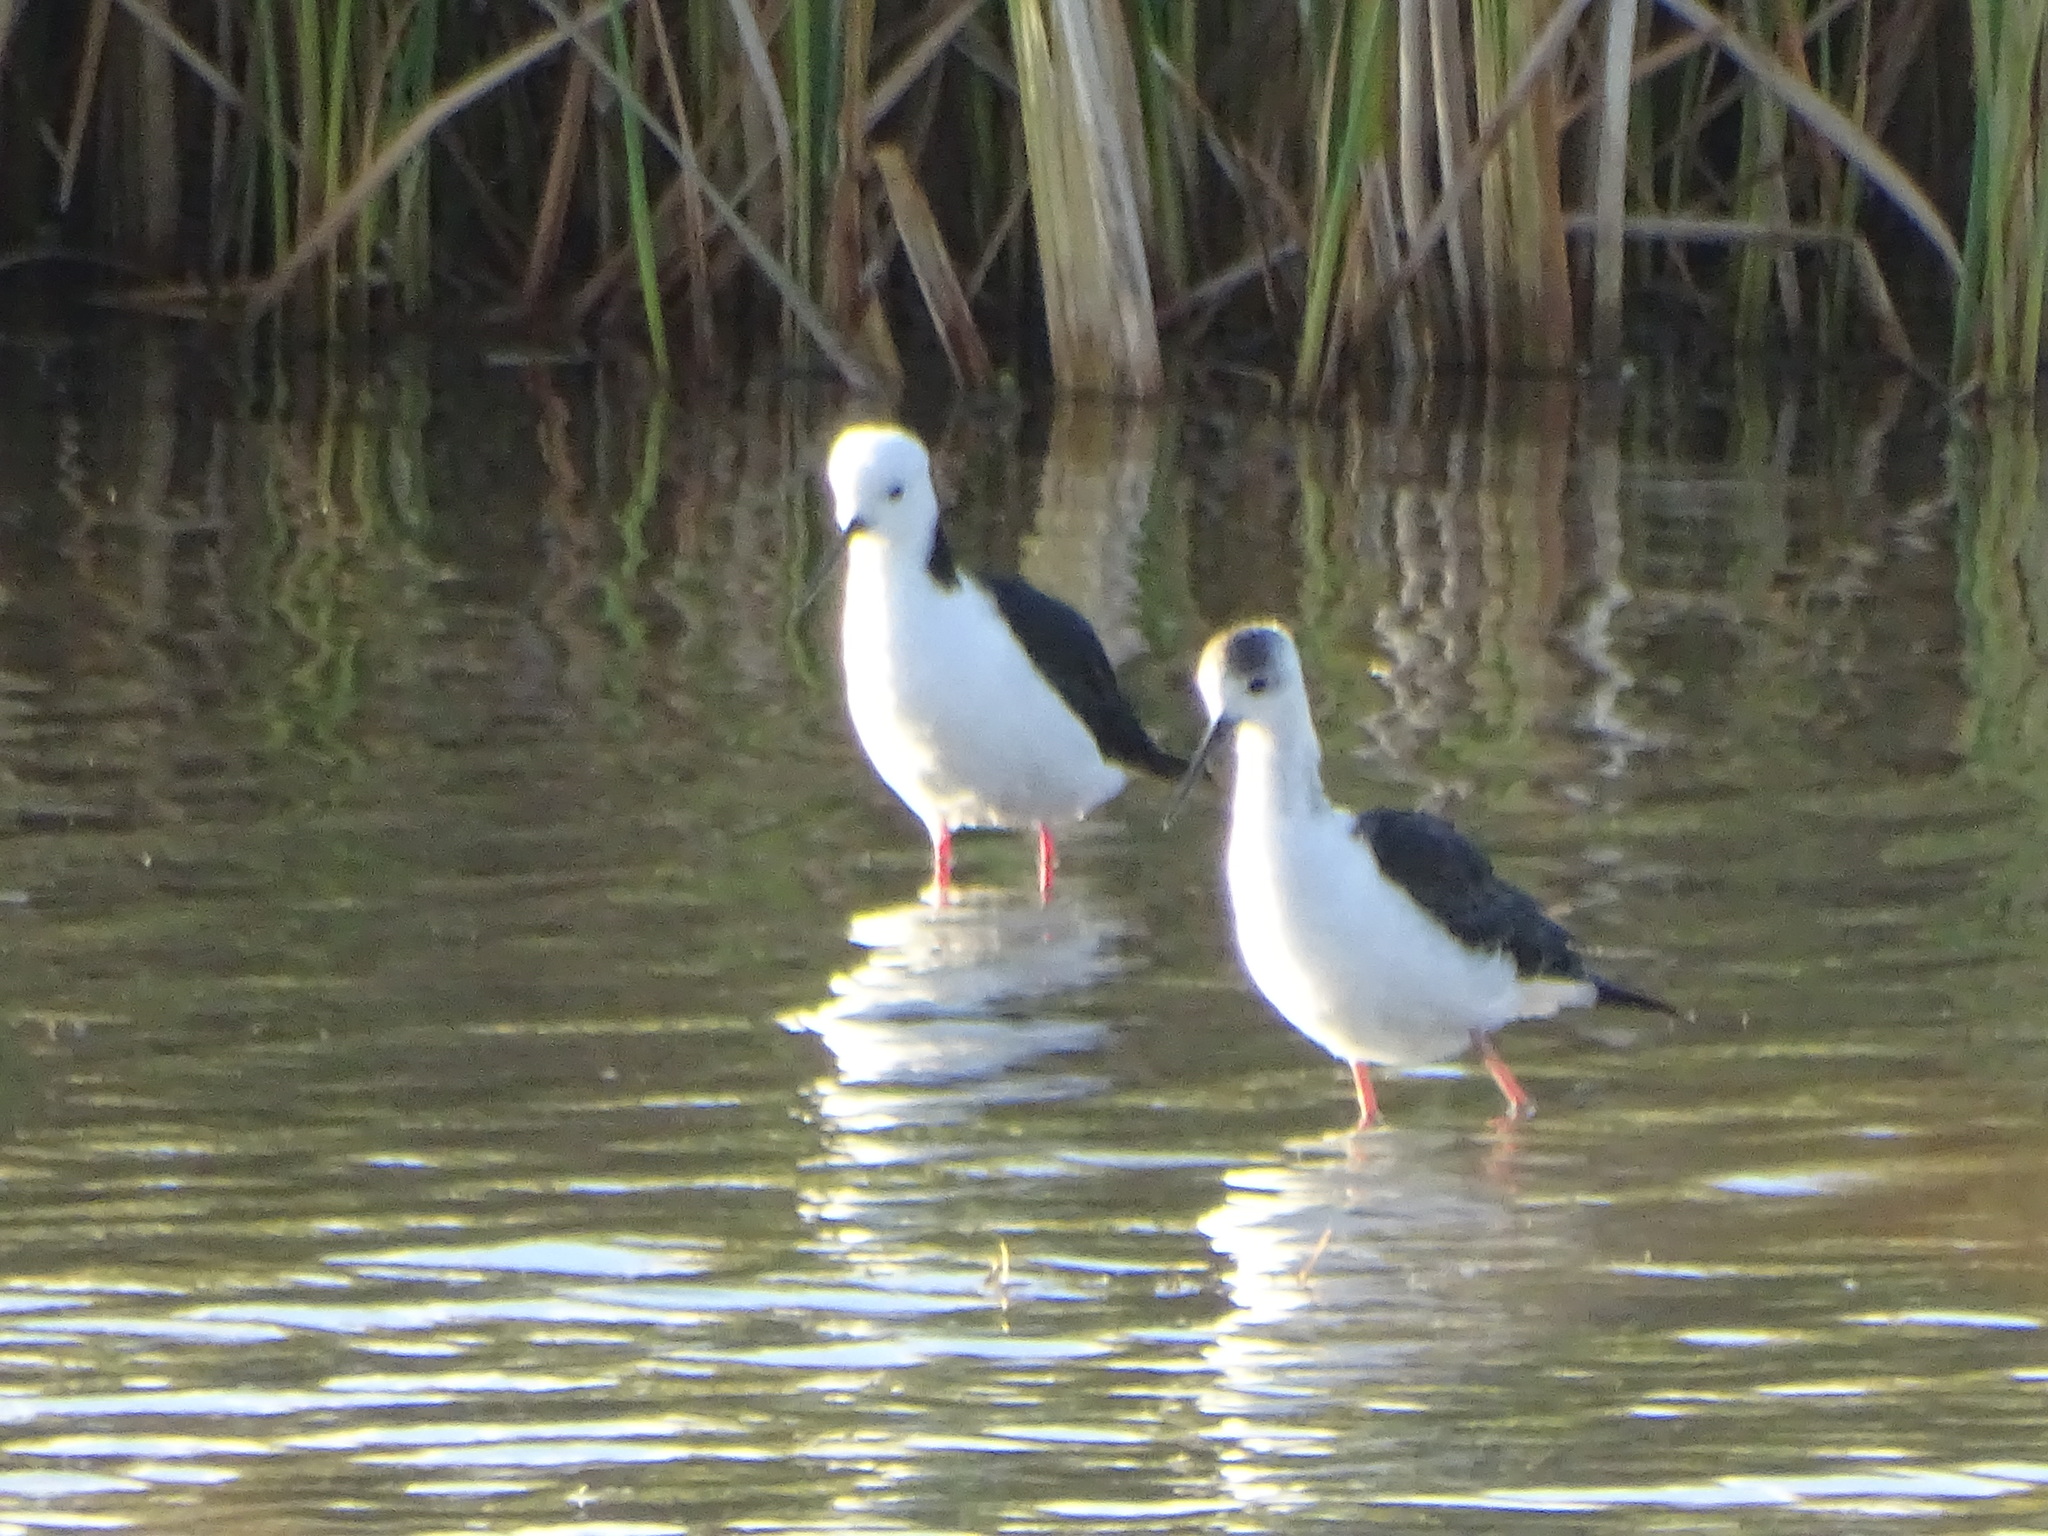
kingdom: Animalia
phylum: Chordata
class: Aves
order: Charadriiformes
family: Recurvirostridae
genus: Himantopus
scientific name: Himantopus leucocephalus
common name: White-headed stilt
